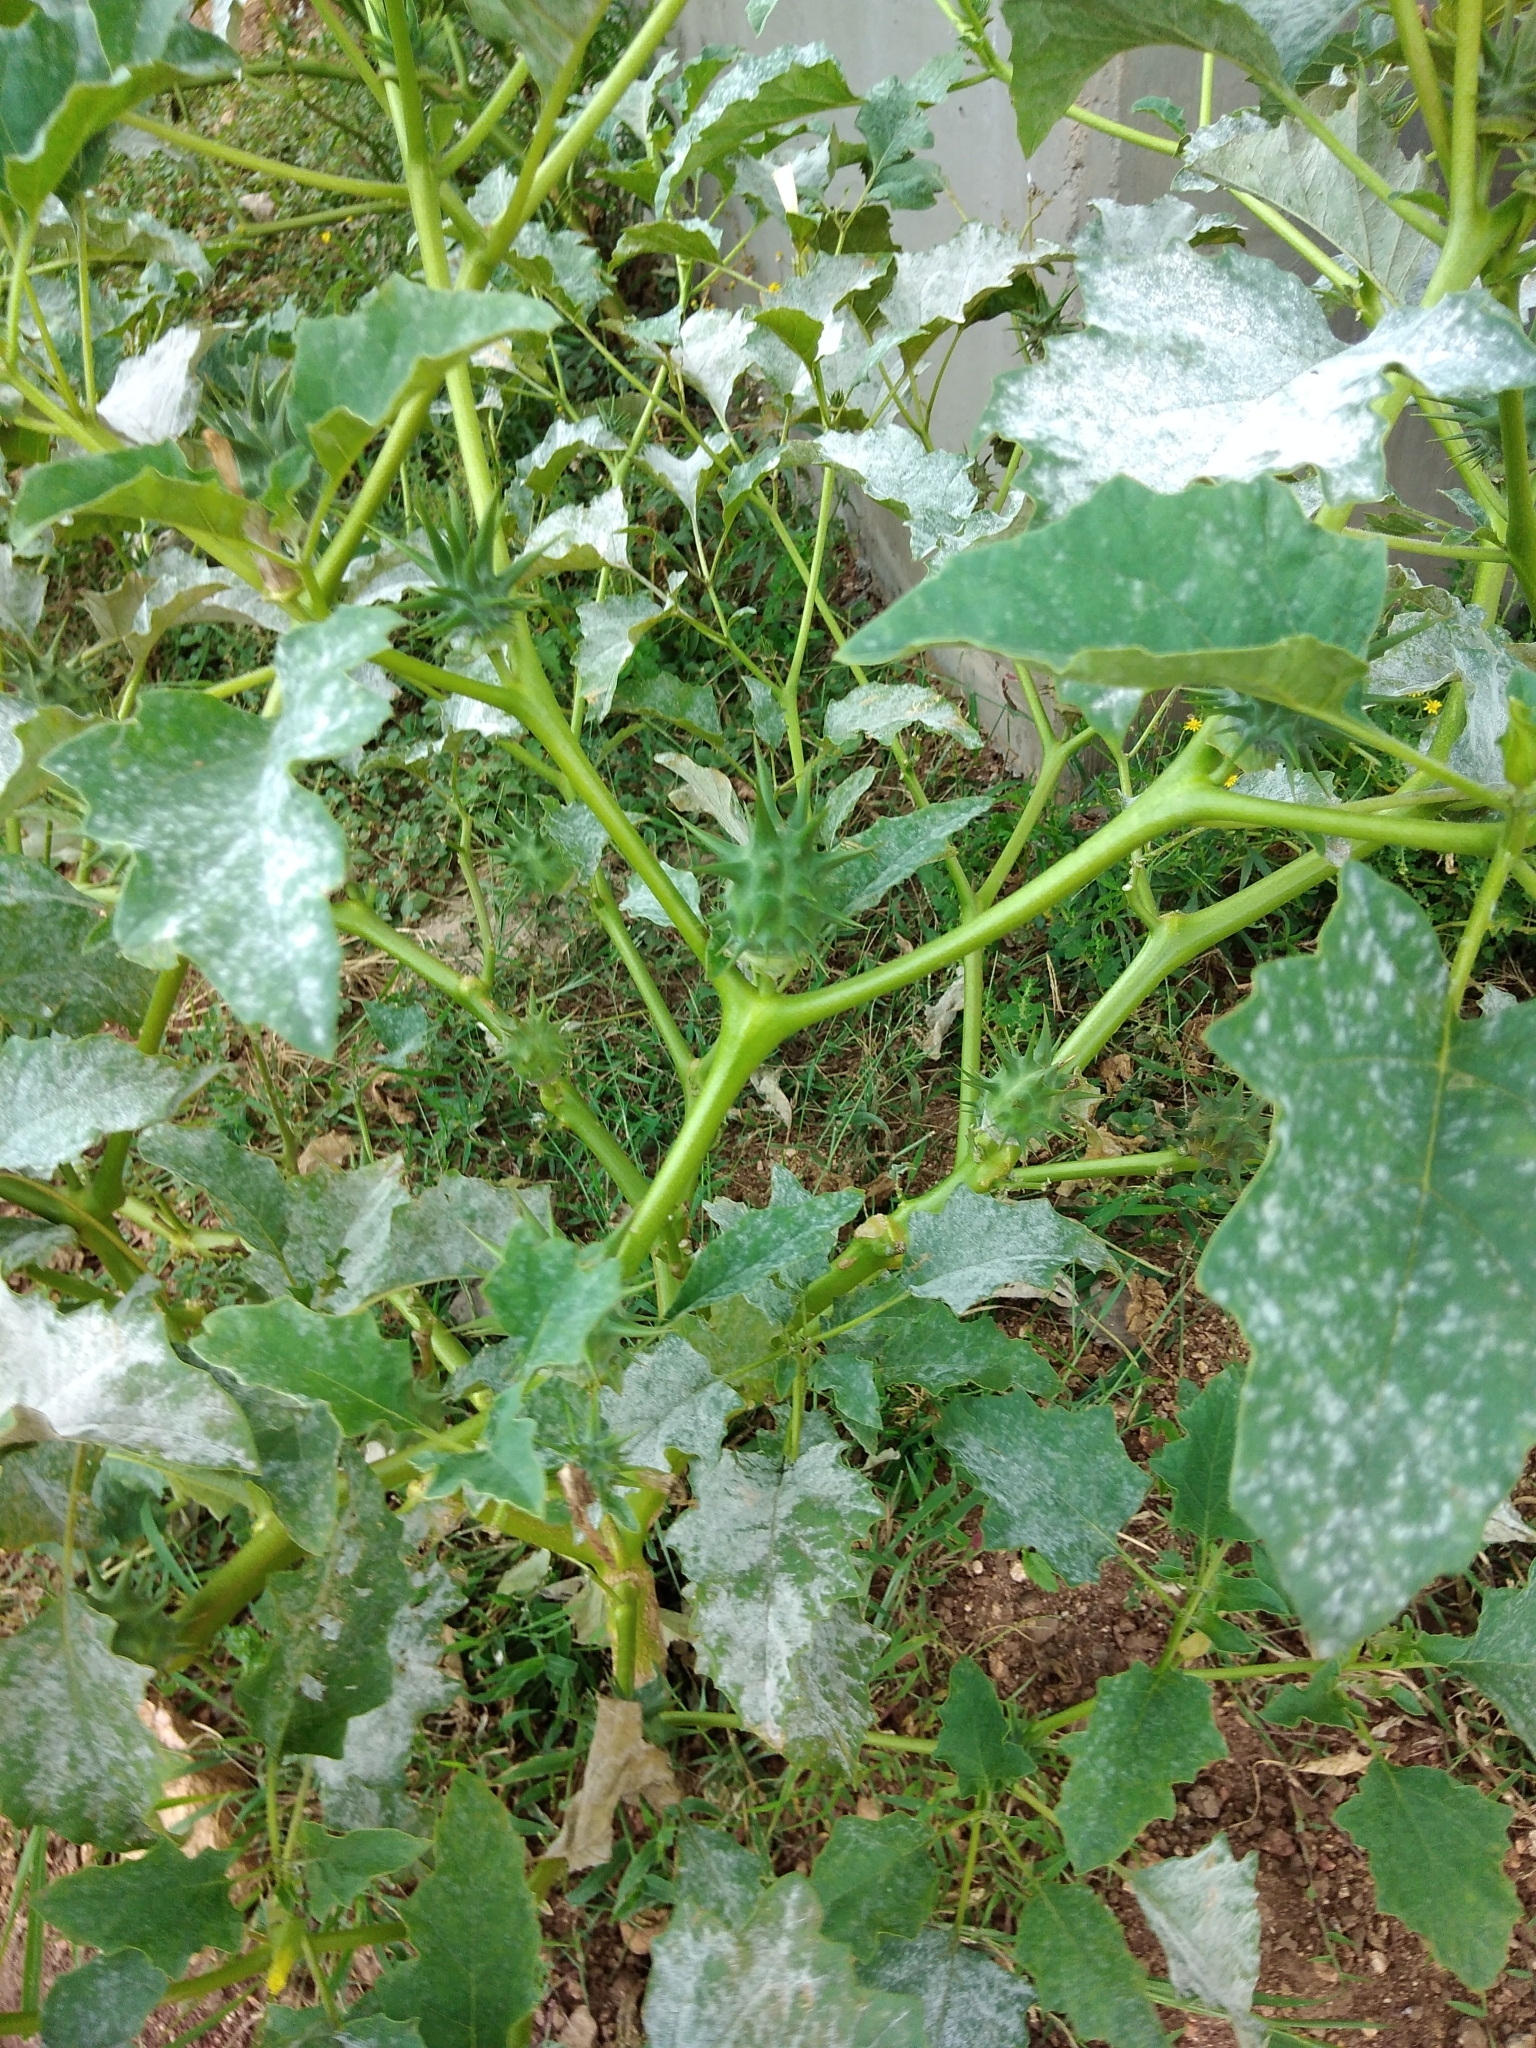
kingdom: Plantae
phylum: Tracheophyta
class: Magnoliopsida
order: Solanales
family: Solanaceae
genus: Datura
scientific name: Datura ferox
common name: Angel's-trumpets
